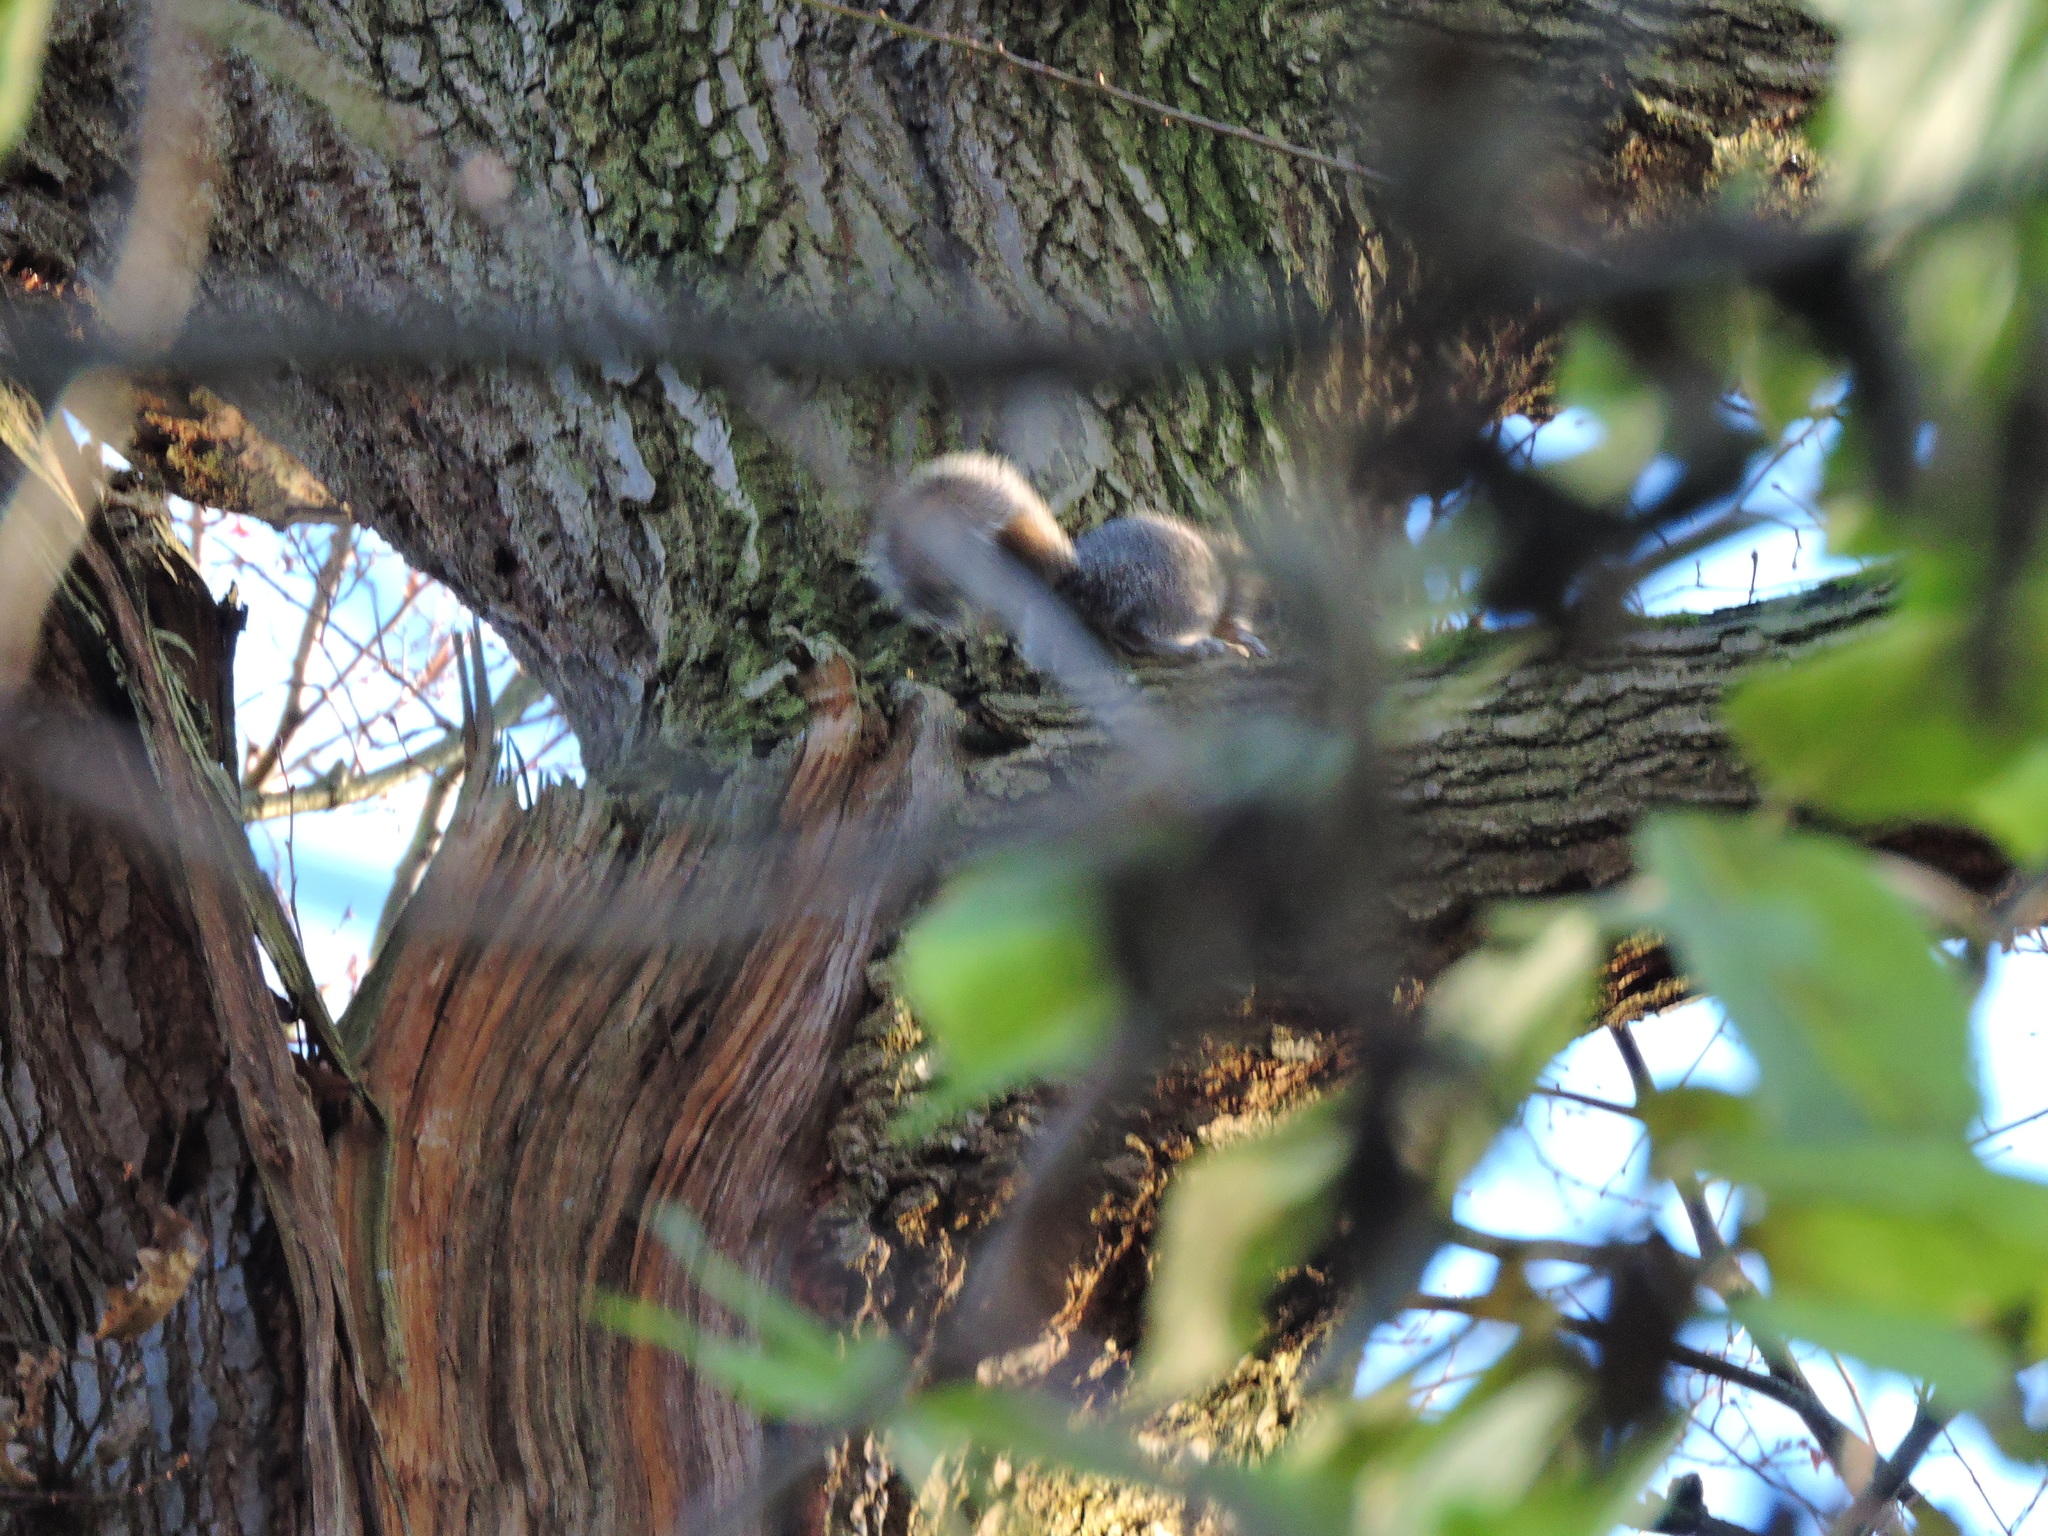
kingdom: Animalia
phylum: Chordata
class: Mammalia
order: Rodentia
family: Sciuridae
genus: Sciurus
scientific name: Sciurus carolinensis
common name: Eastern gray squirrel
